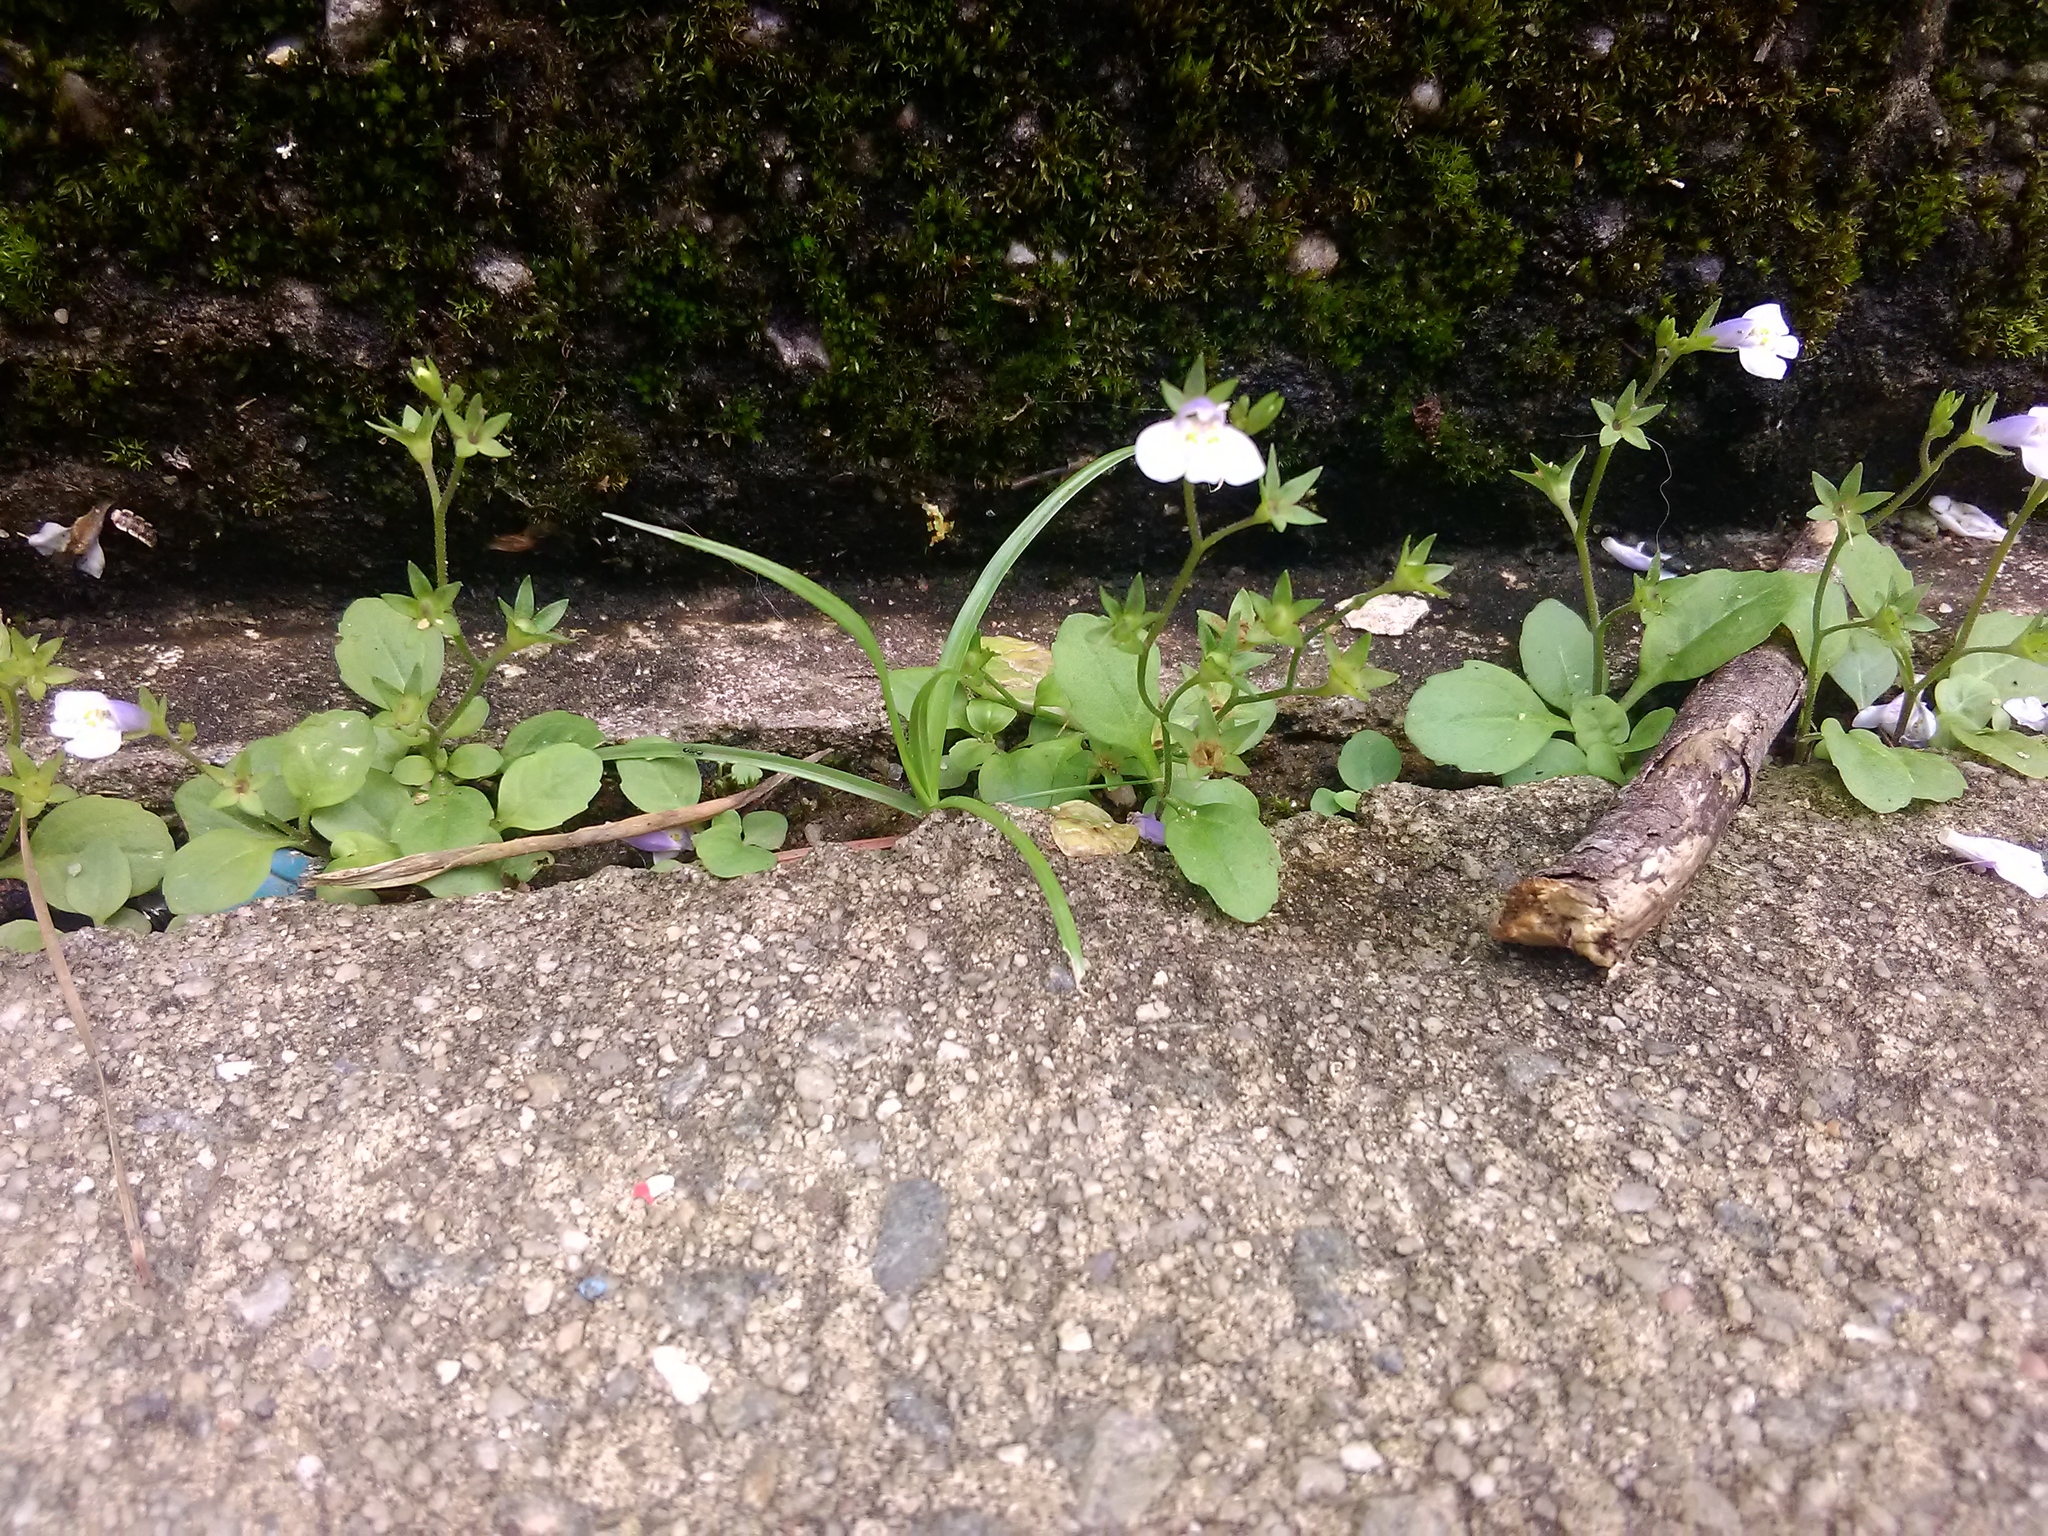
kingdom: Plantae
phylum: Tracheophyta
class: Magnoliopsida
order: Lamiales
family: Mazaceae
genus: Mazus
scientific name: Mazus pumilus
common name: Japanese mazus
